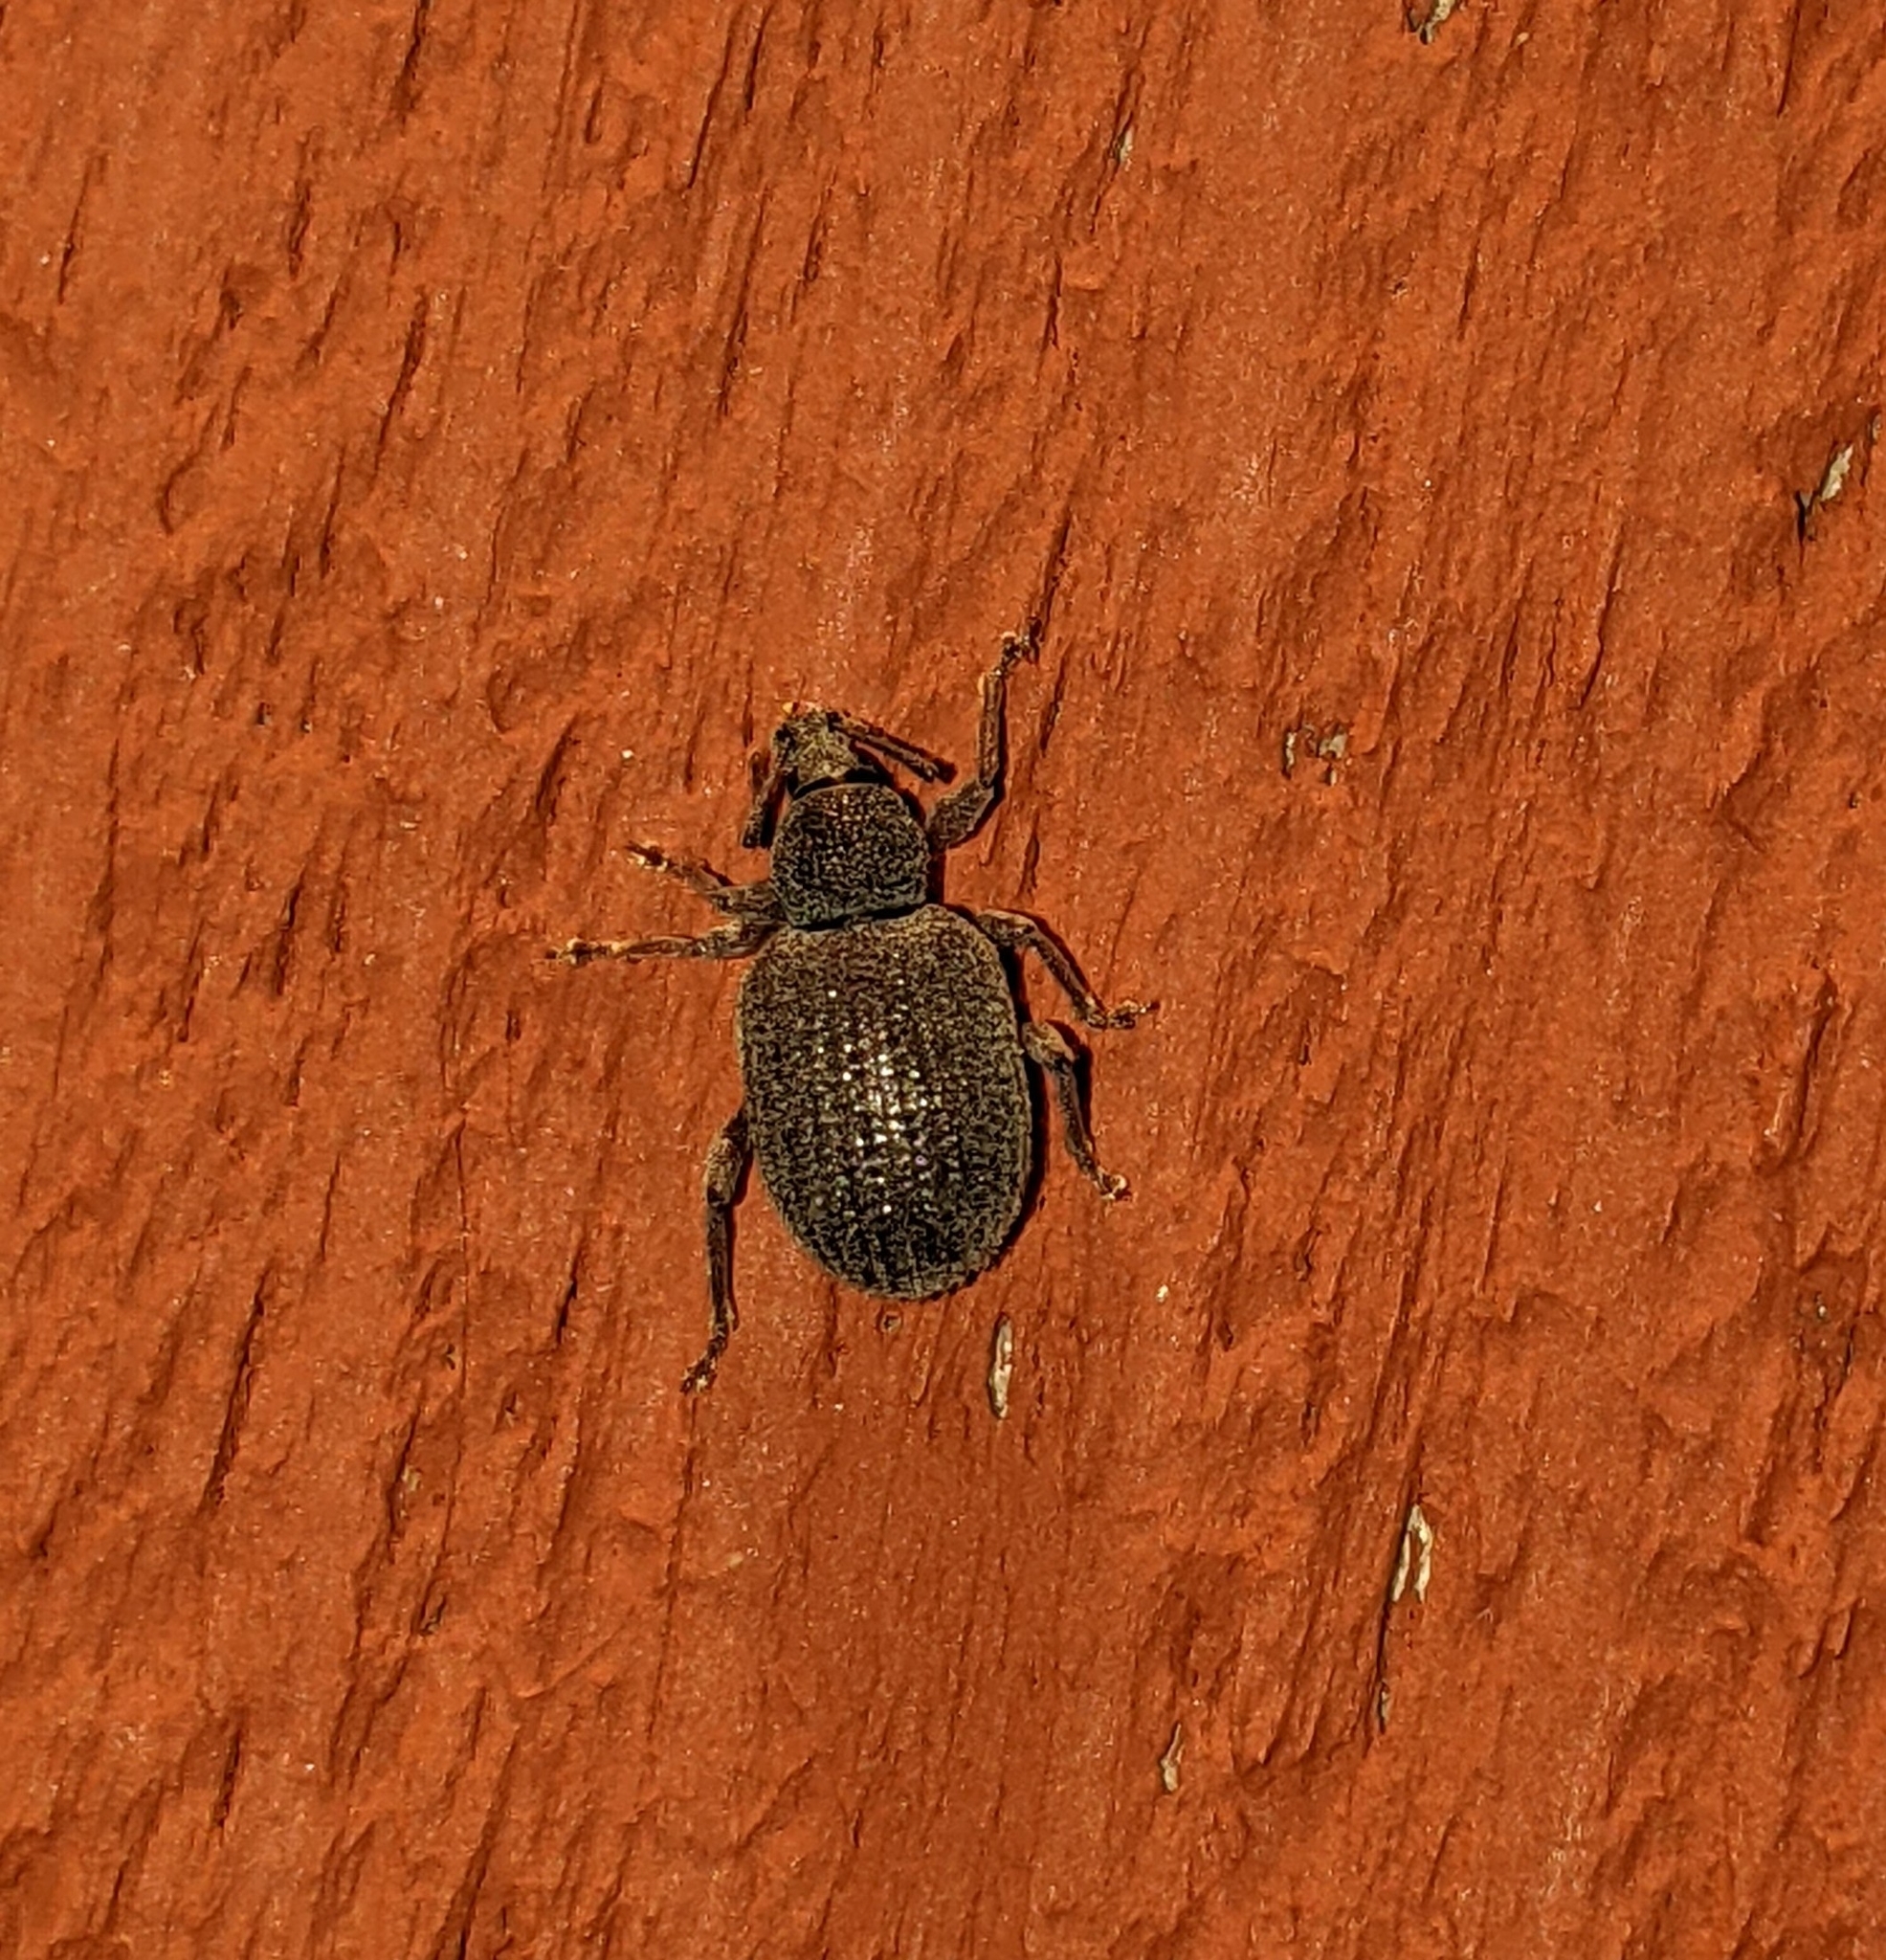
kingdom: Animalia
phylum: Arthropoda
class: Insecta
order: Coleoptera
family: Curculionidae
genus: Otiorhynchus
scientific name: Otiorhynchus rugosostriatus
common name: Weevil
